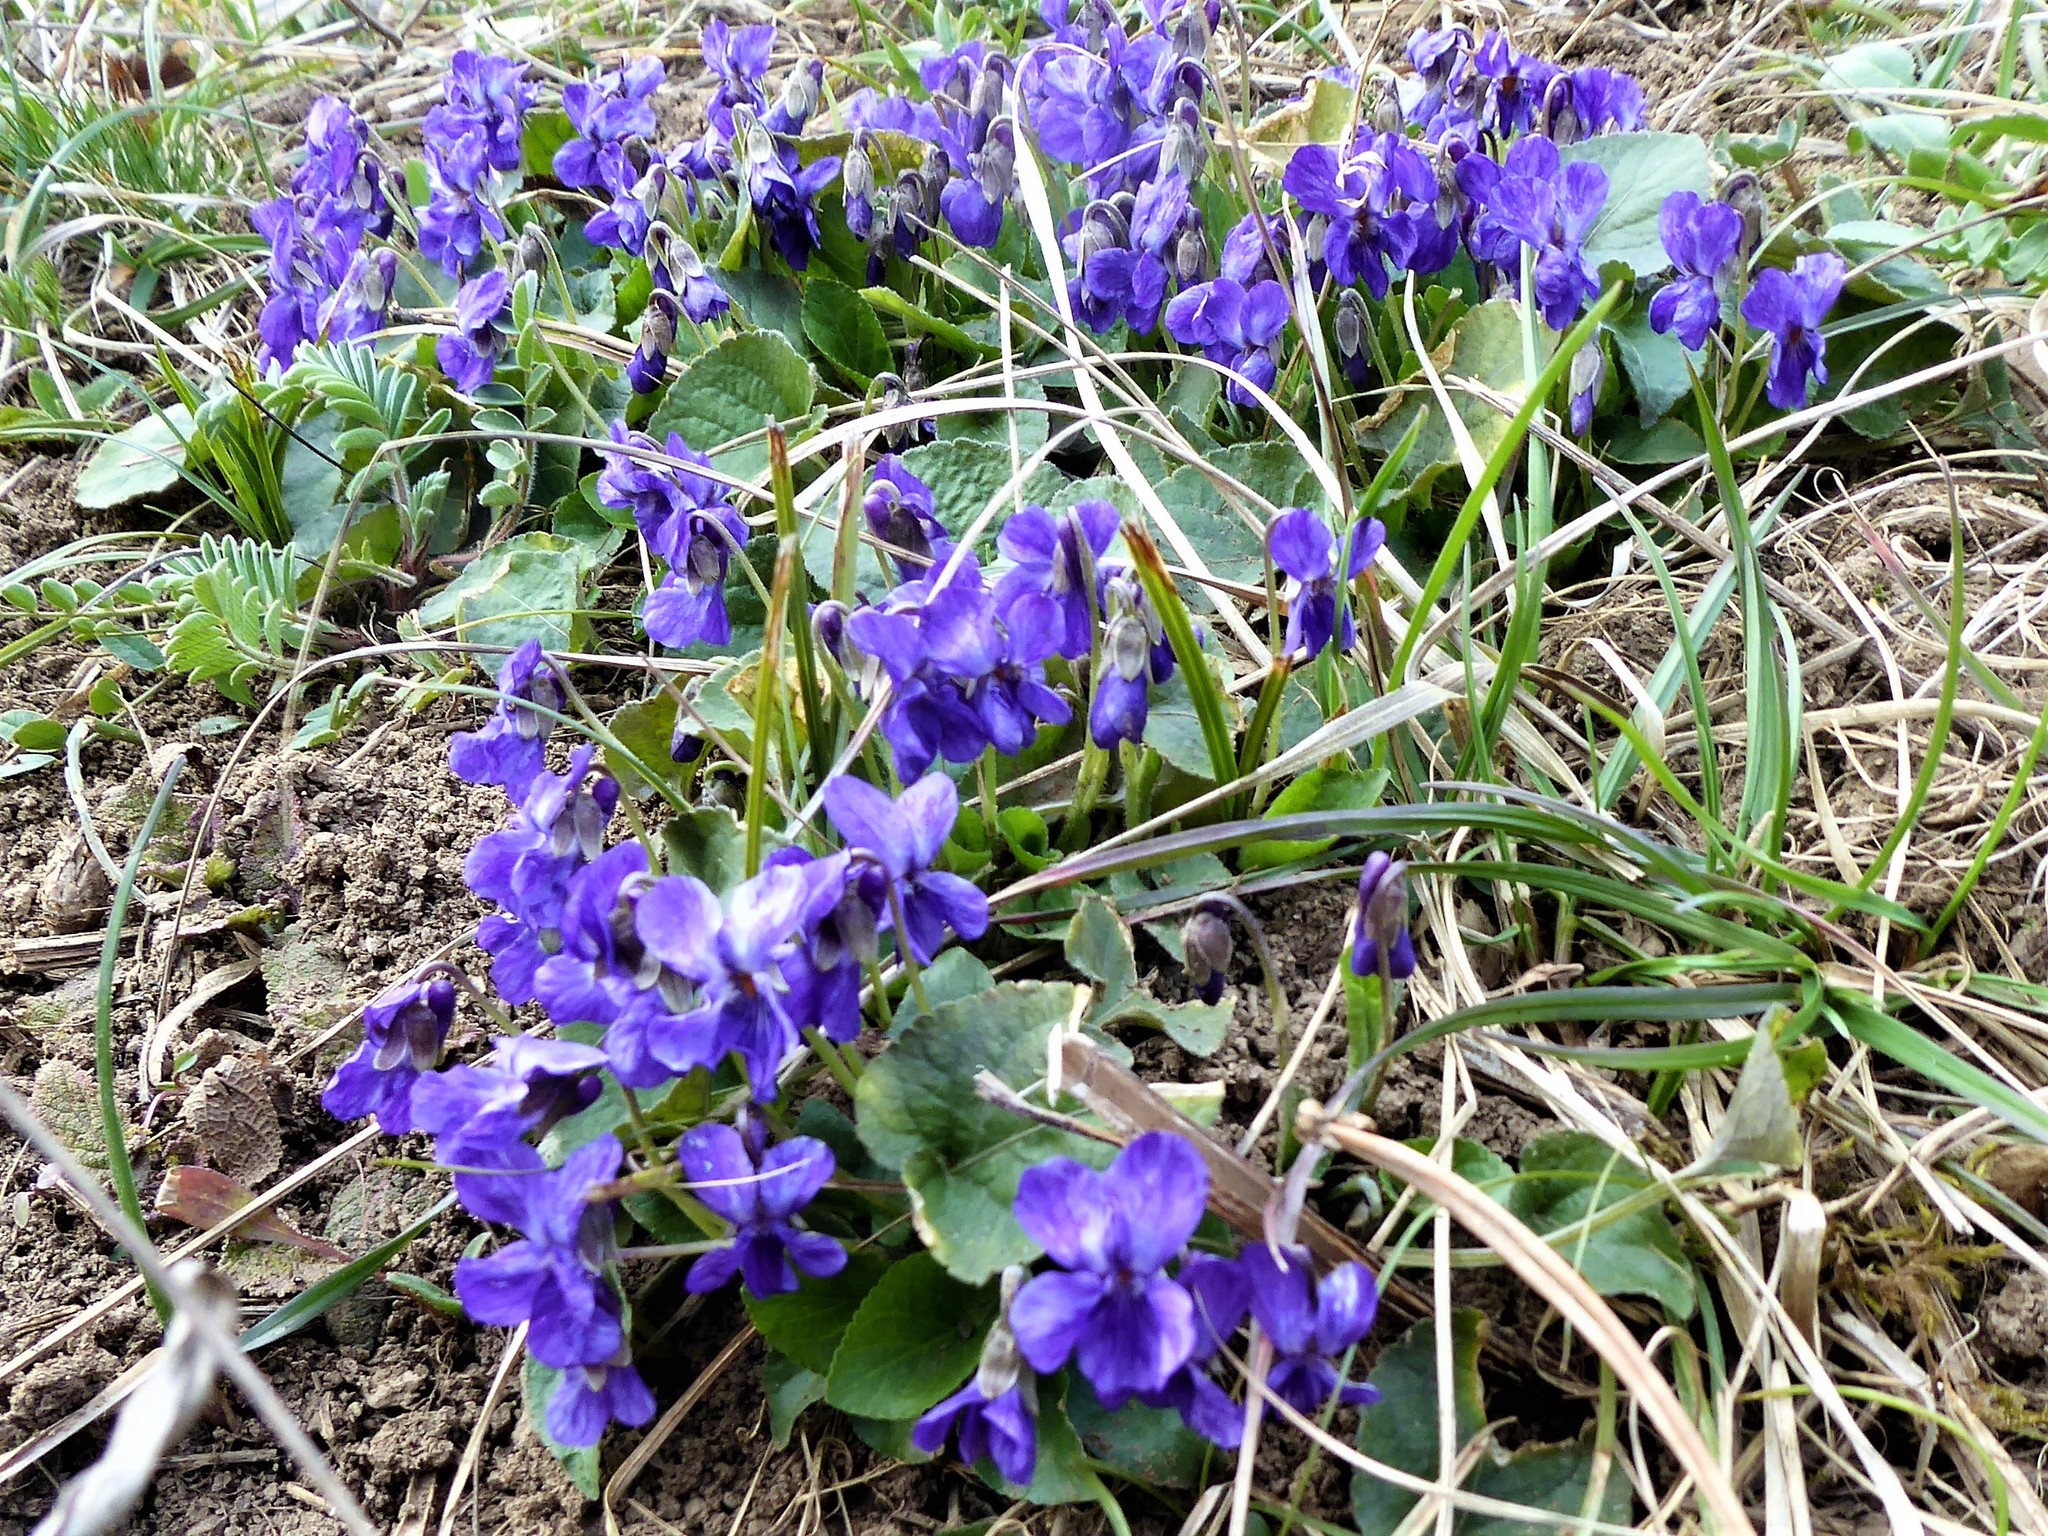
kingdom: Plantae
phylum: Tracheophyta
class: Magnoliopsida
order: Malpighiales
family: Violaceae
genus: Viola
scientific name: Viola odorata
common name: Sweet violet
